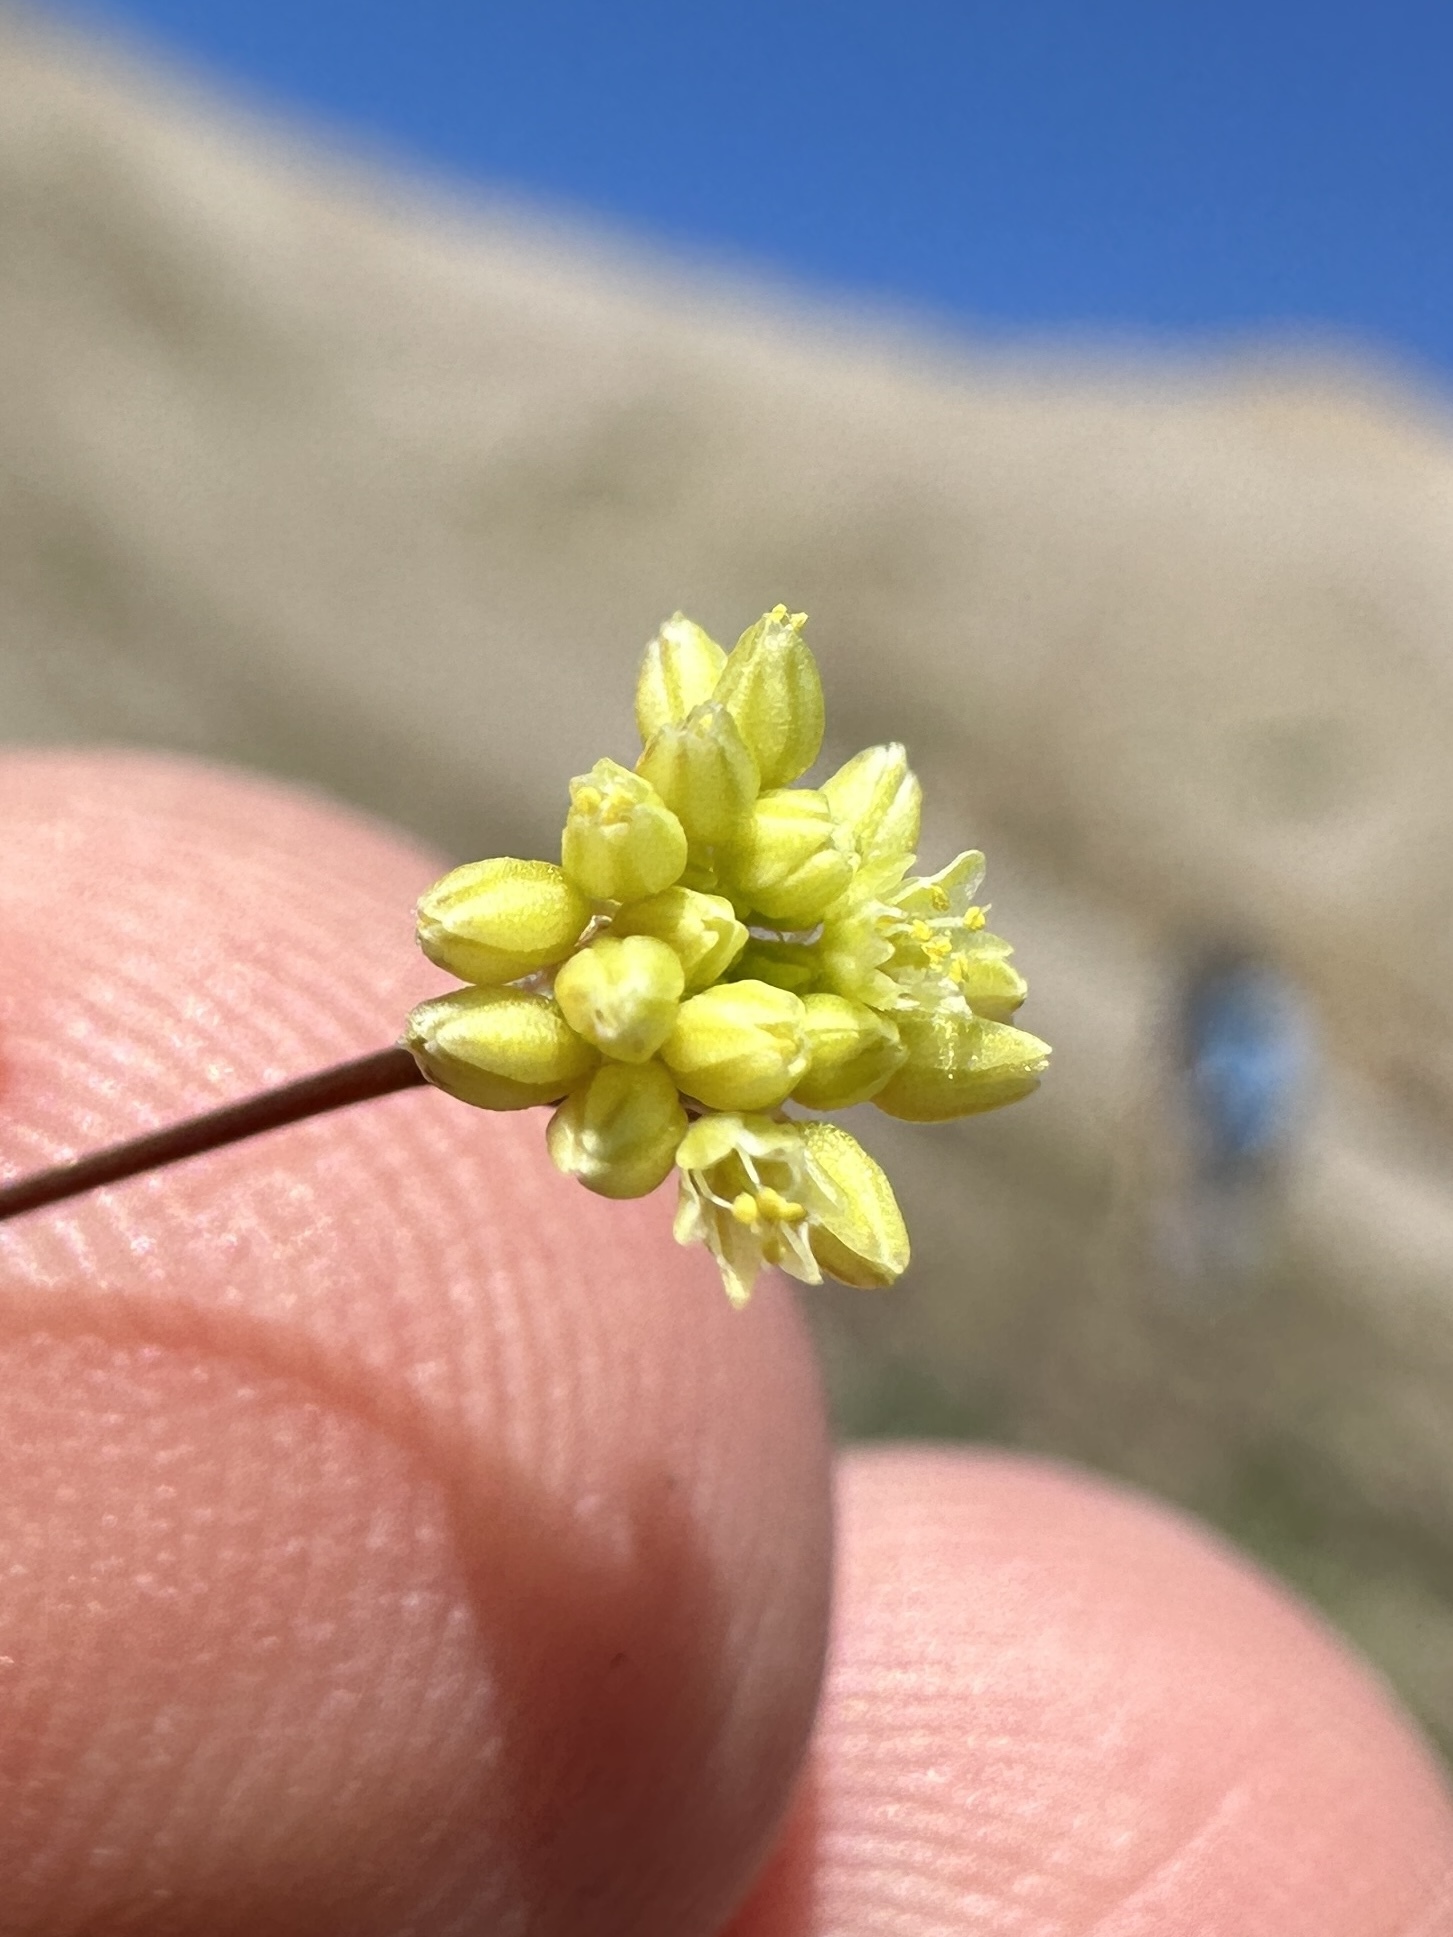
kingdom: Plantae
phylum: Tracheophyta
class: Magnoliopsida
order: Caryophyllales
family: Polygonaceae
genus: Eriogonum
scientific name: Eriogonum rubricaule
